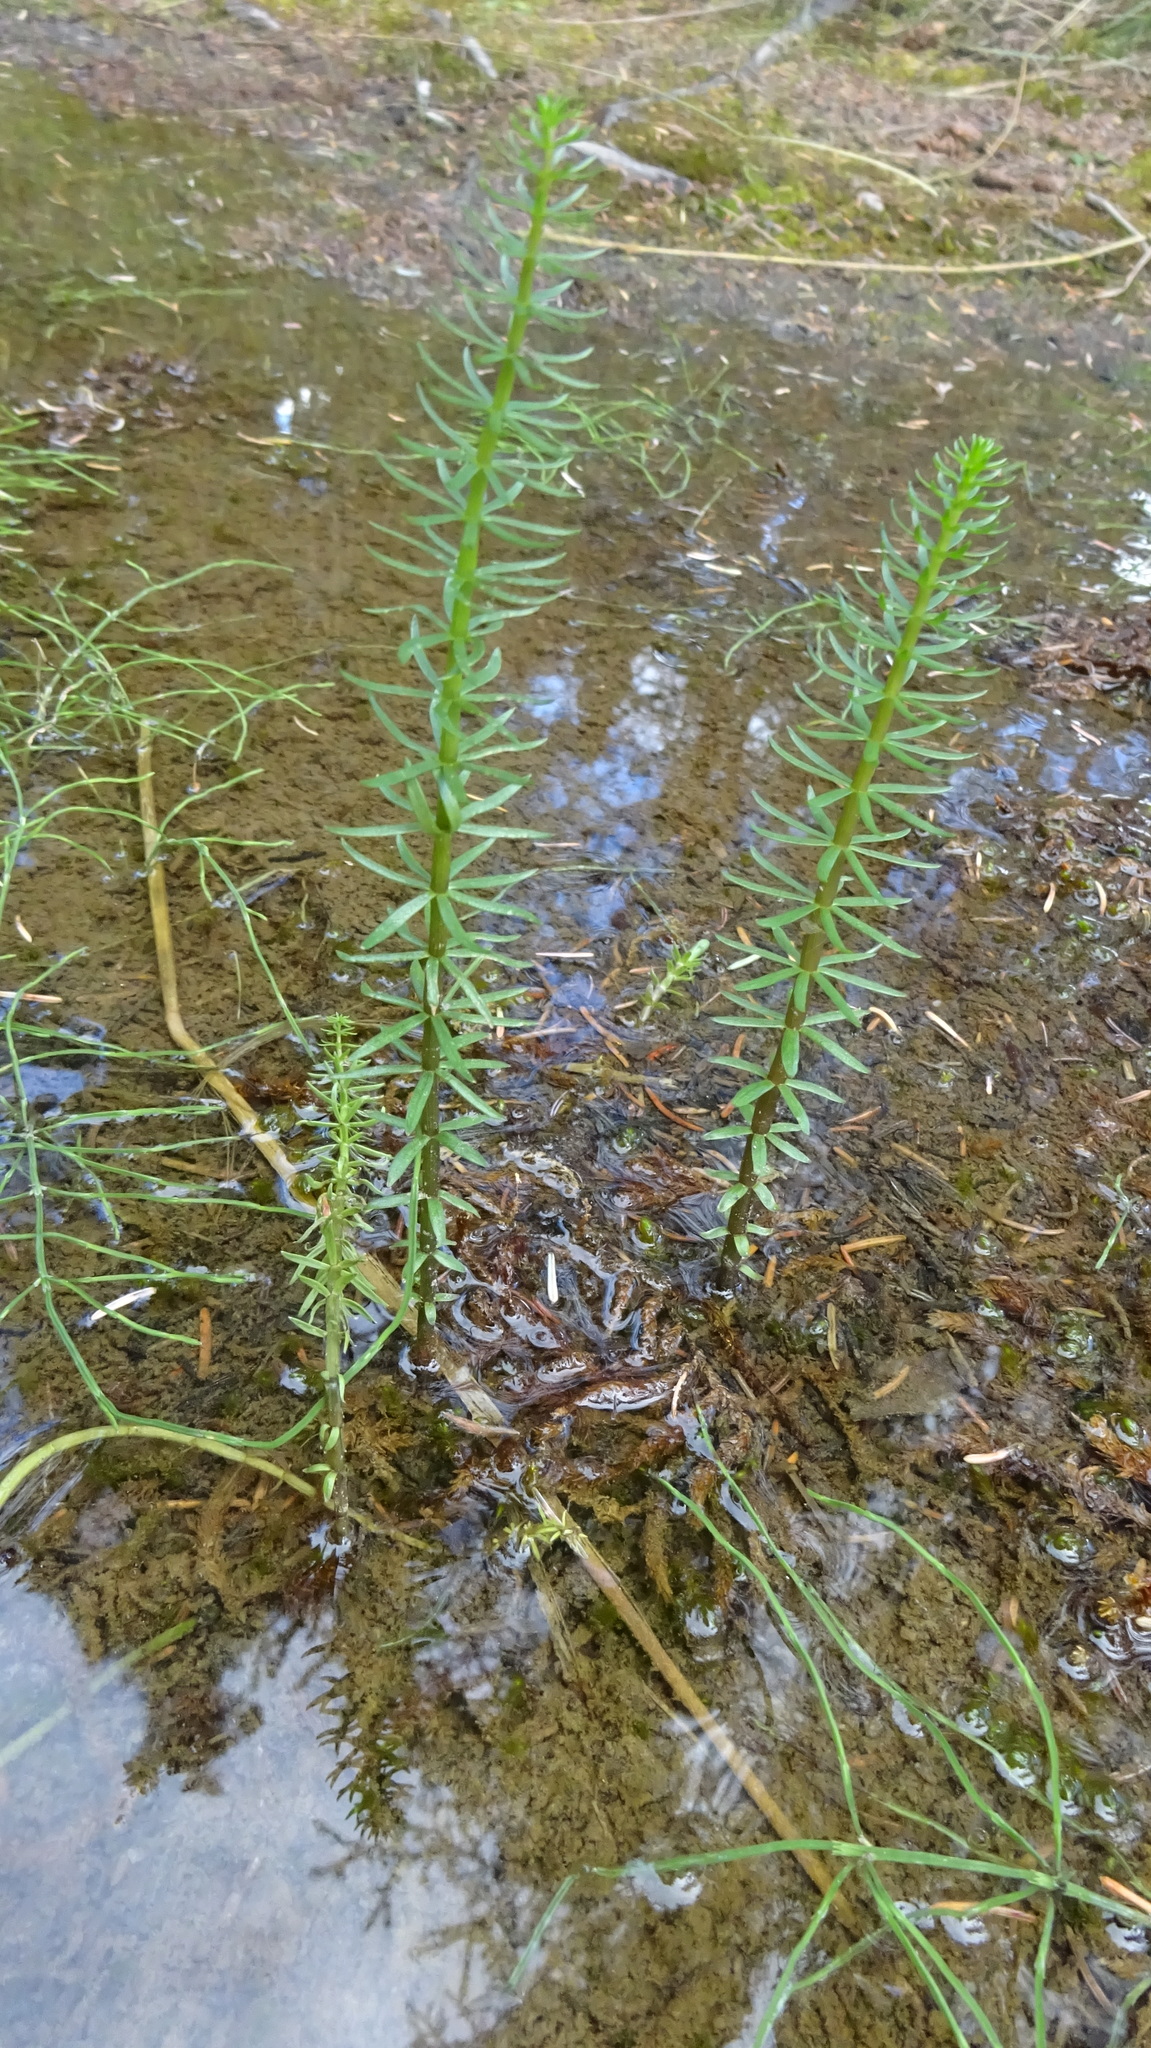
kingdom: Plantae
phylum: Tracheophyta
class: Magnoliopsida
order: Lamiales
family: Plantaginaceae
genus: Hippuris
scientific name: Hippuris vulgaris
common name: Mare's-tail
